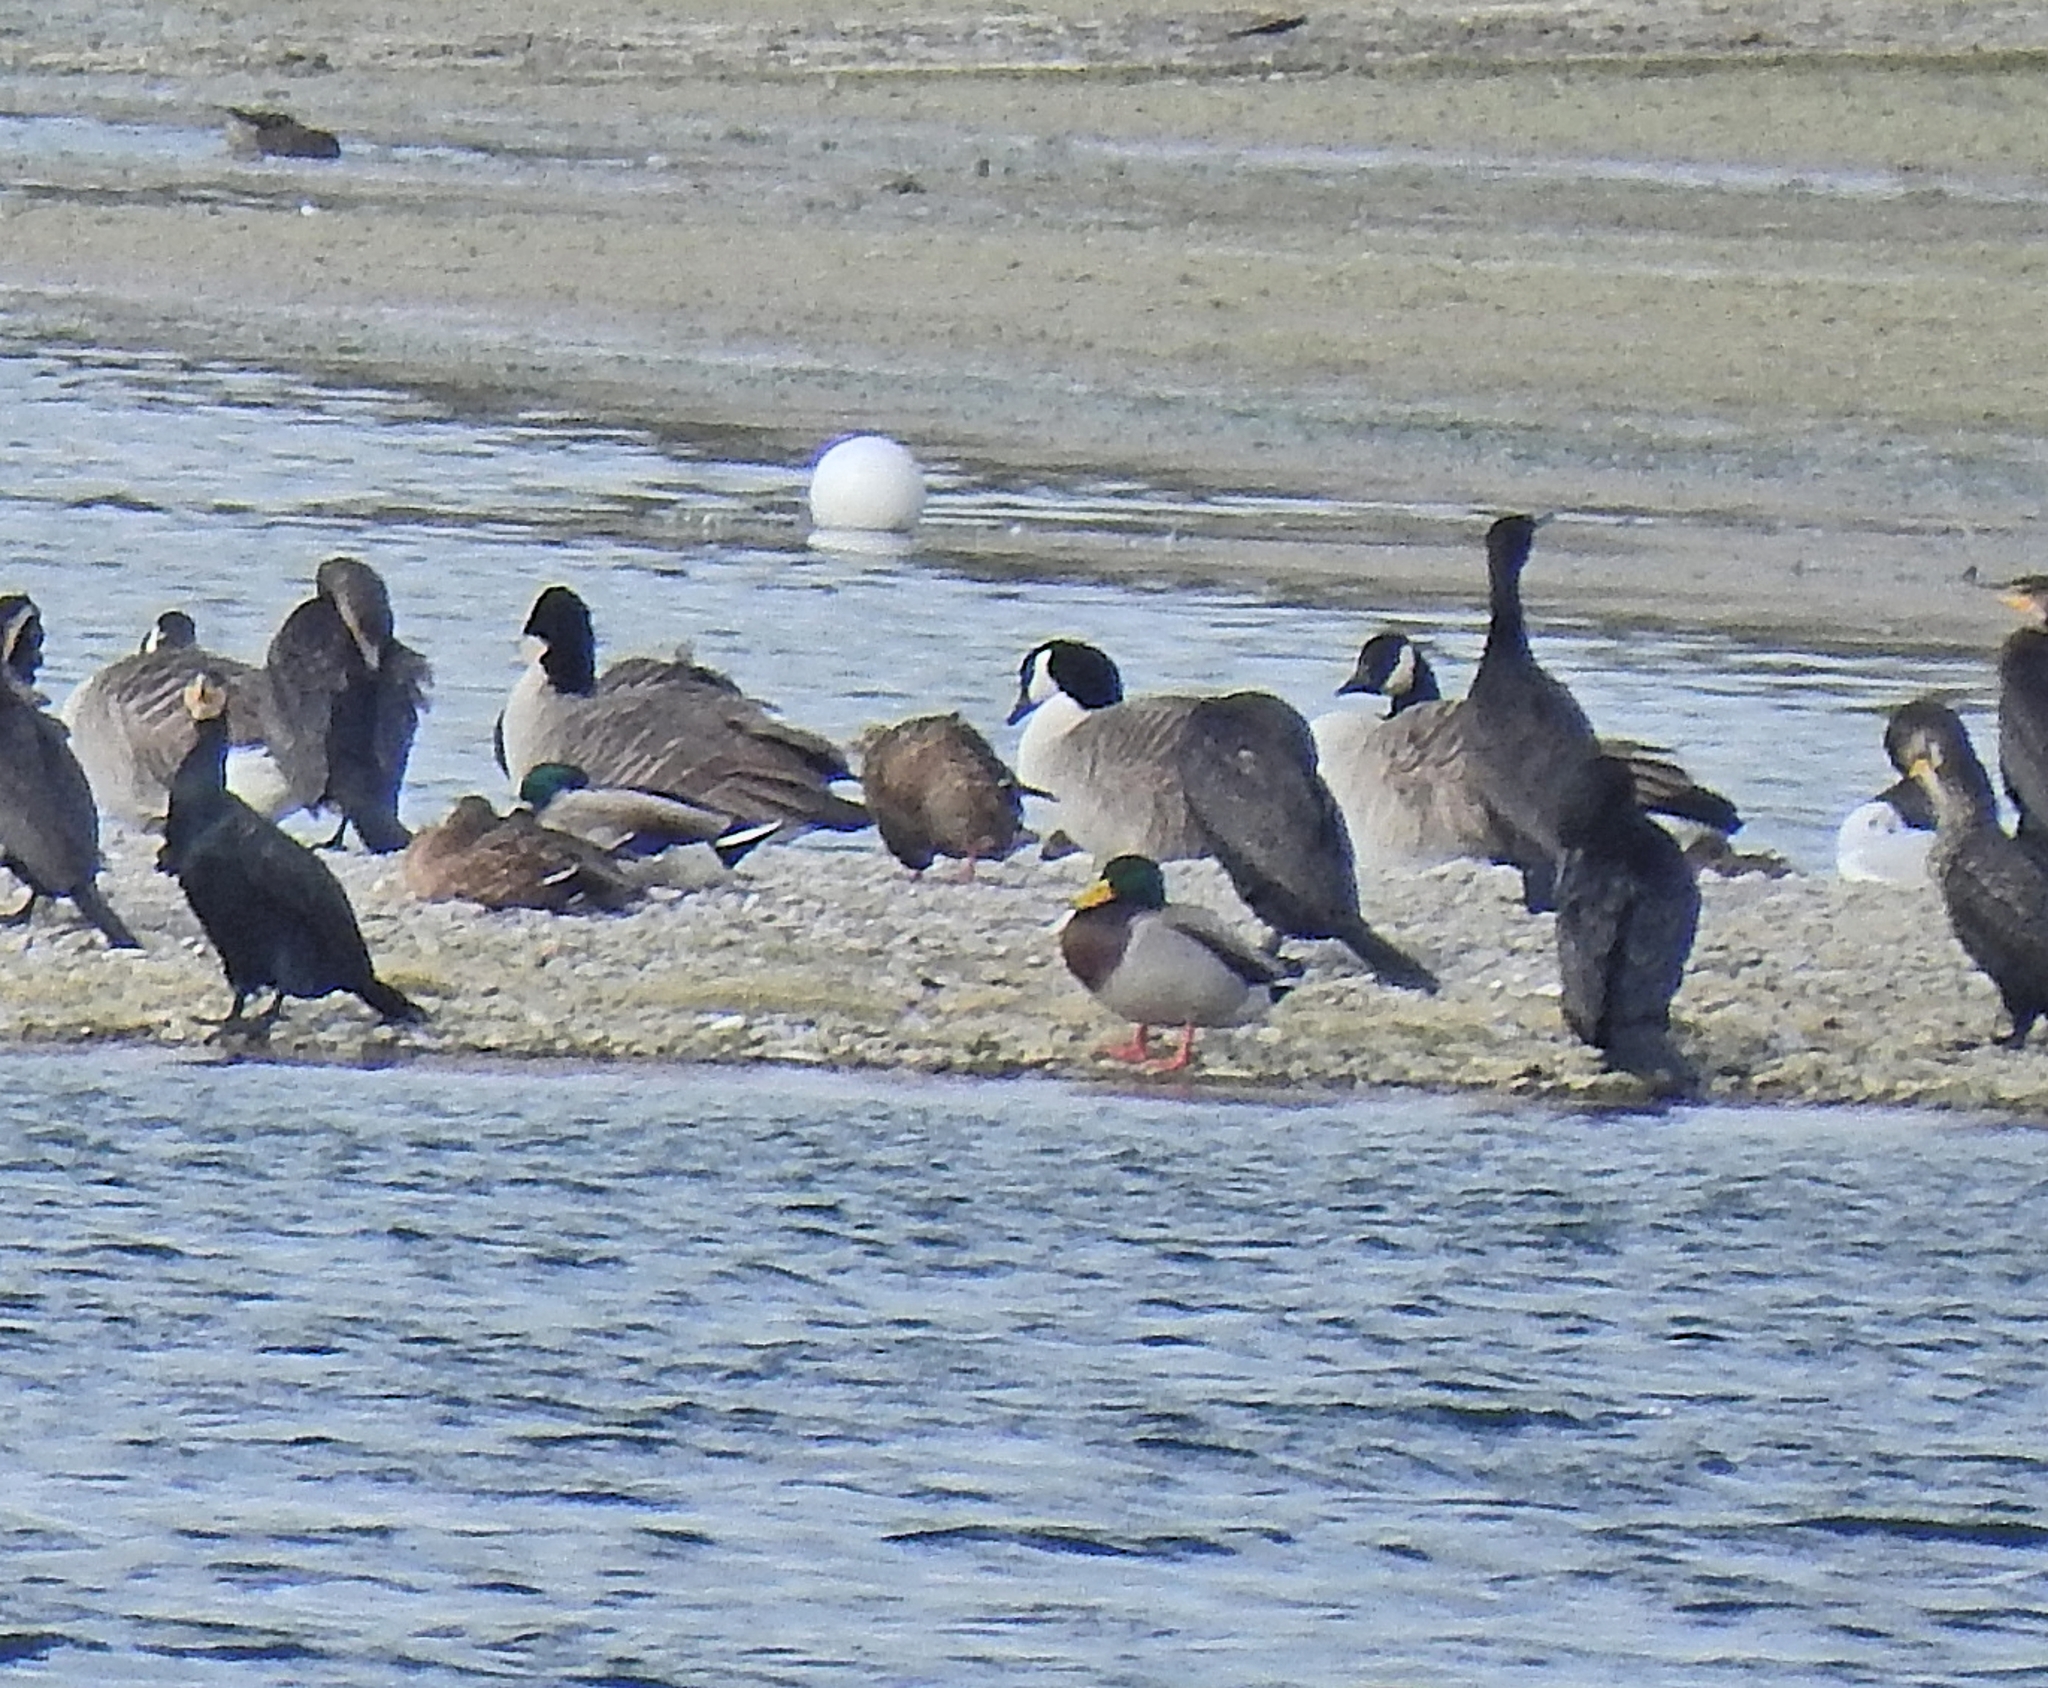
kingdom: Animalia
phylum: Chordata
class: Aves
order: Anseriformes
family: Anatidae
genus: Branta
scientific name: Branta canadensis
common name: Canada goose
